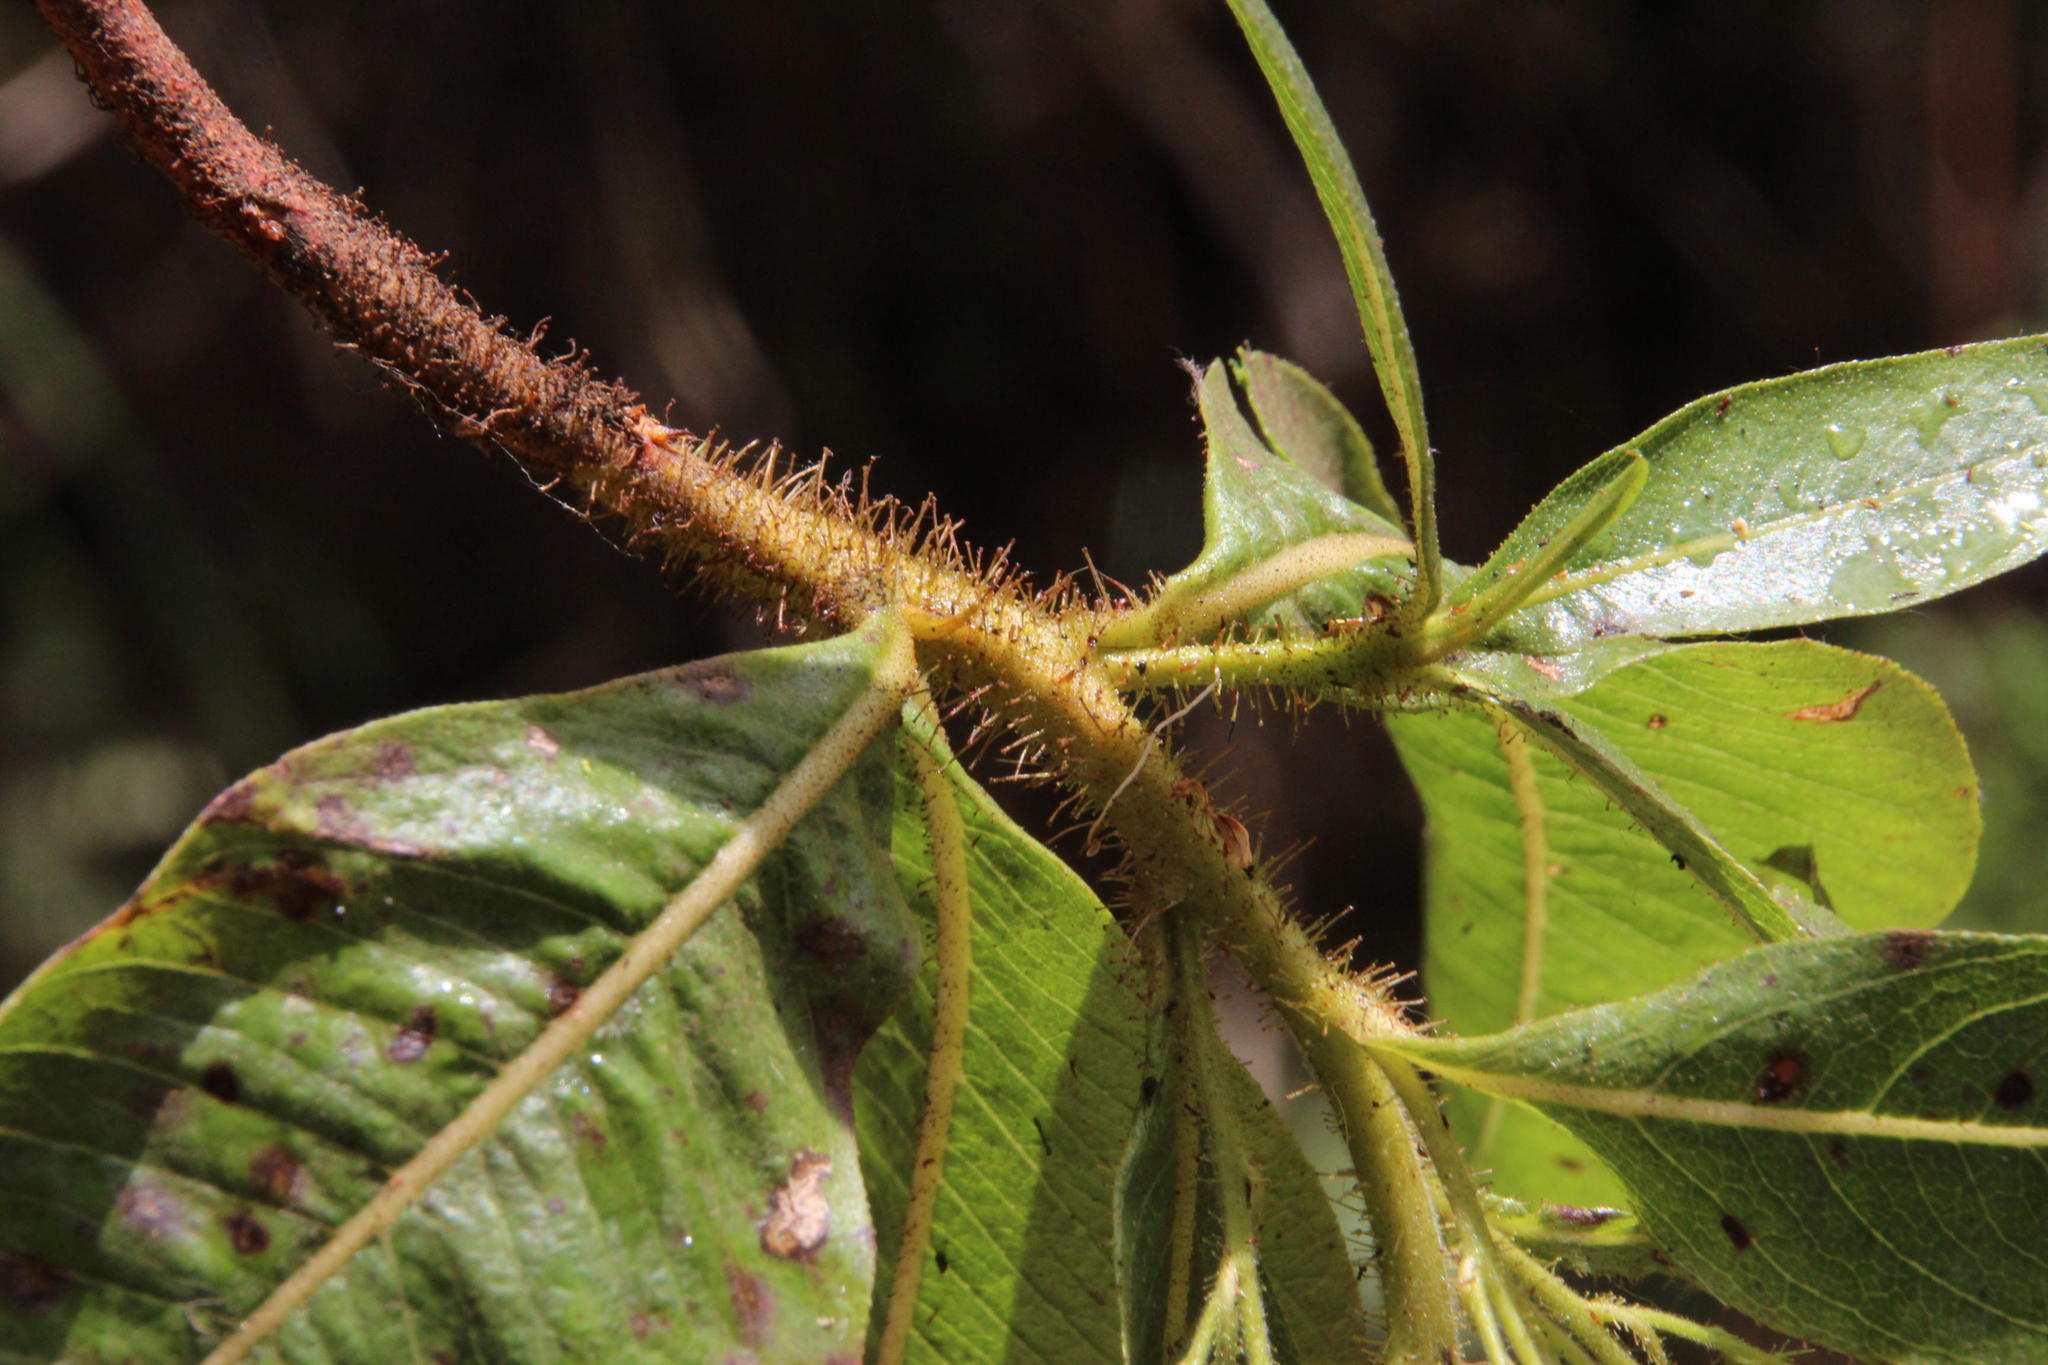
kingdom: Plantae
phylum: Tracheophyta
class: Magnoliopsida
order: Escalloniales
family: Escalloniaceae
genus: Escallonia
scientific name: Escallonia herrerae
